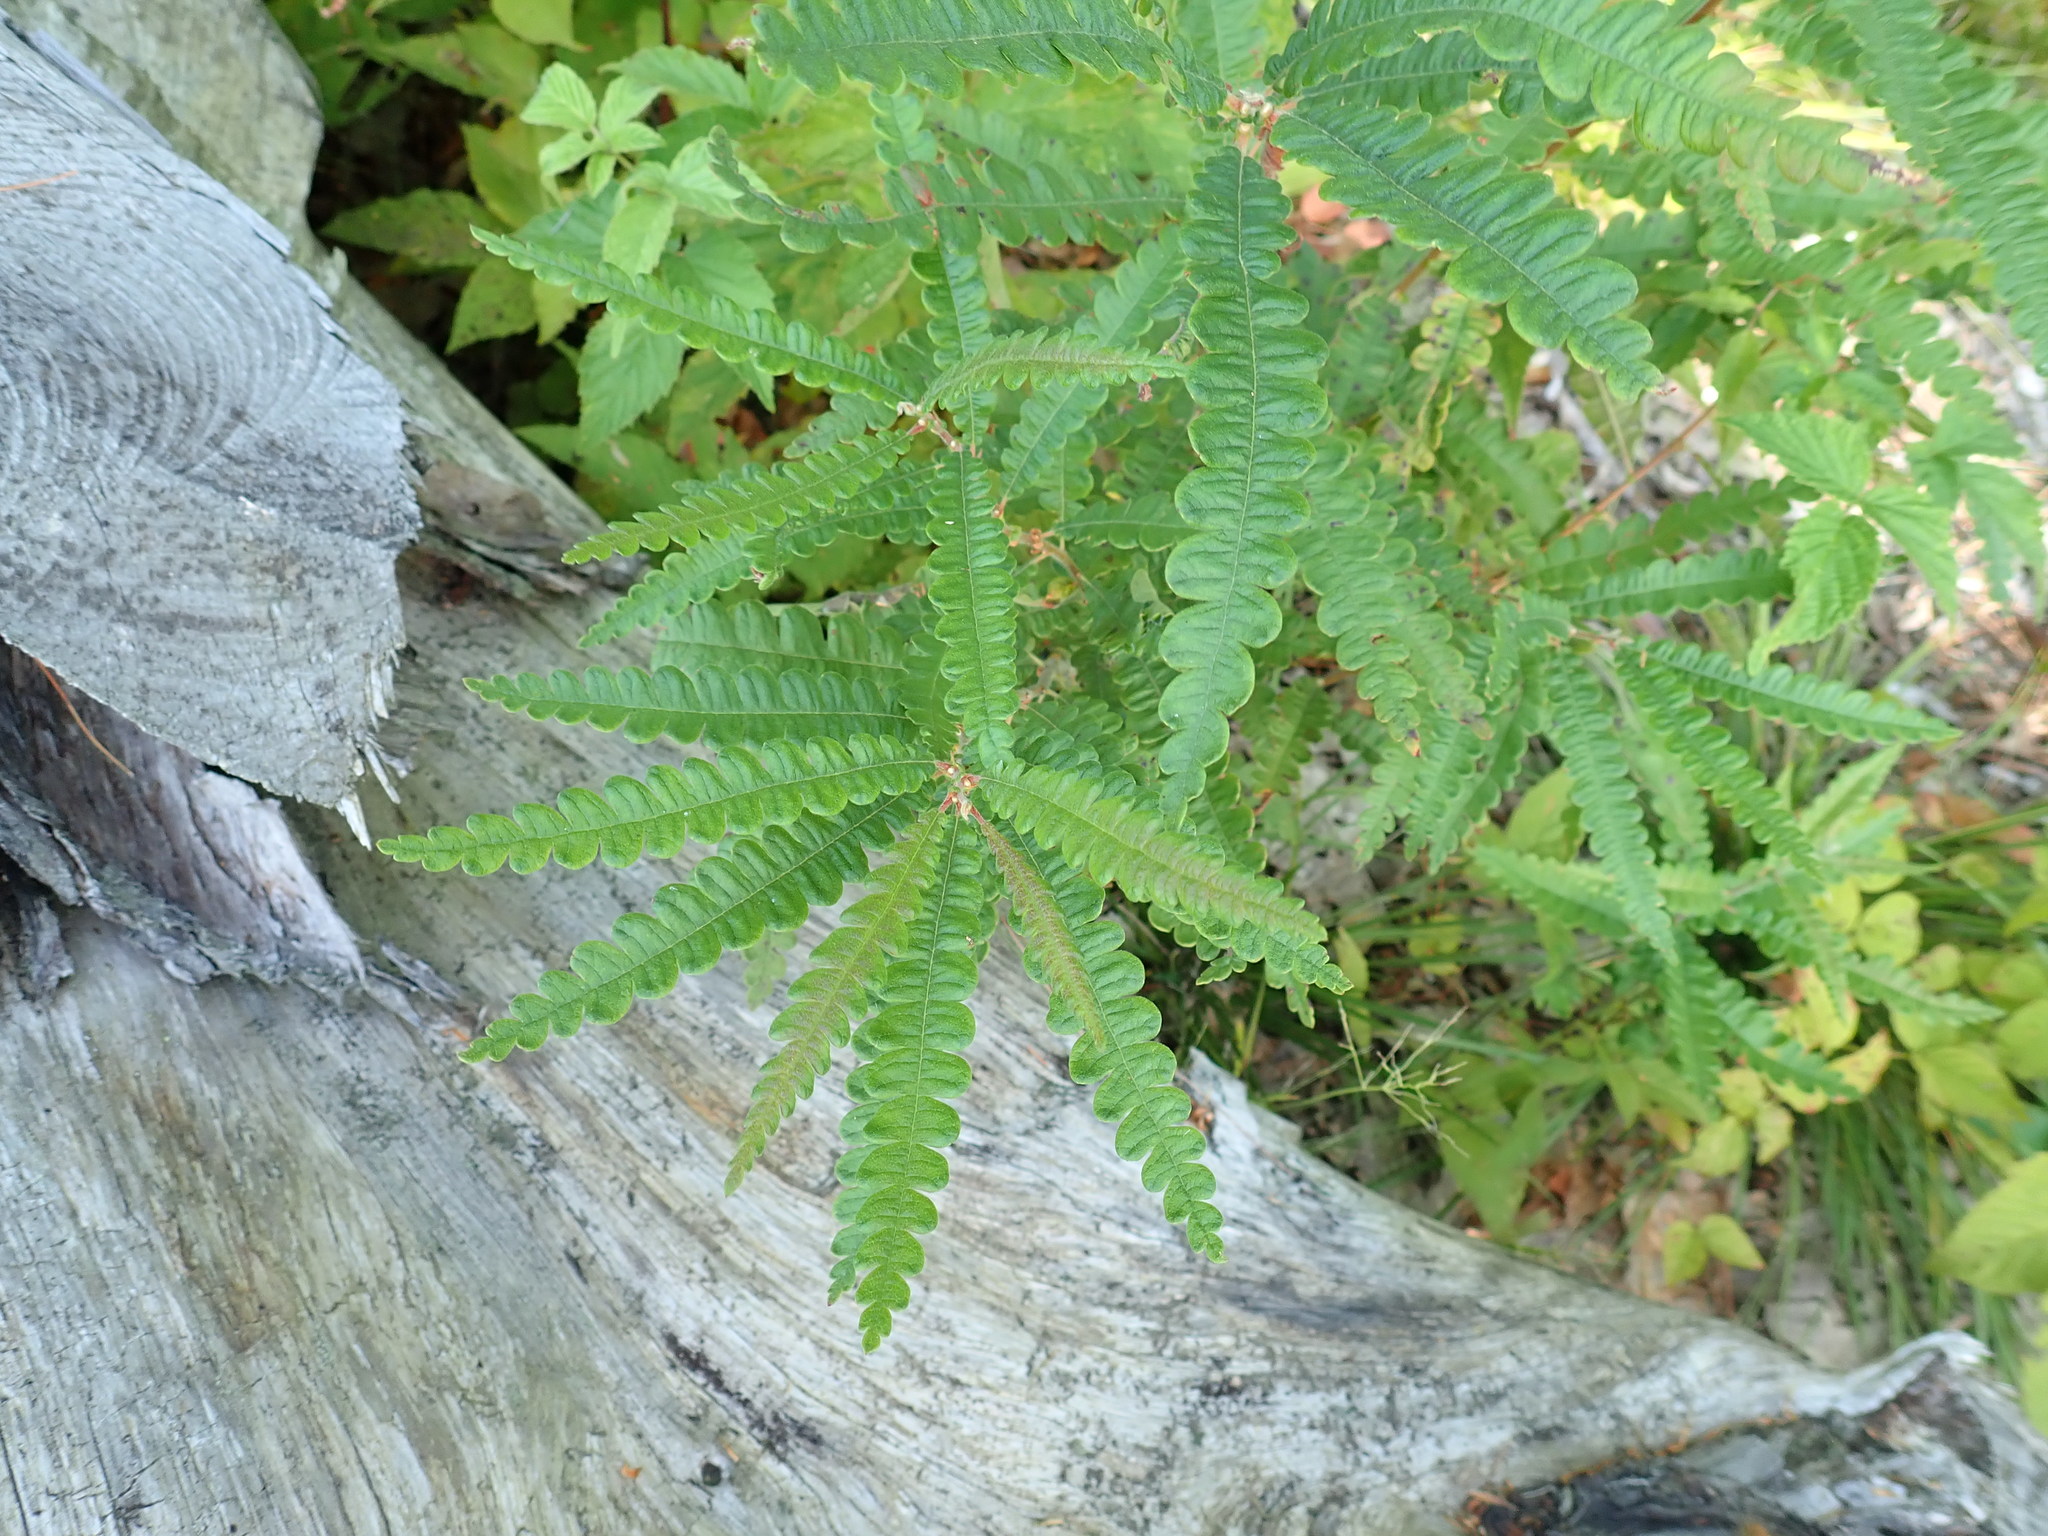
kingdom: Plantae
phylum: Tracheophyta
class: Magnoliopsida
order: Fagales
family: Myricaceae
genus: Comptonia
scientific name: Comptonia peregrina
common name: Sweet-fern
